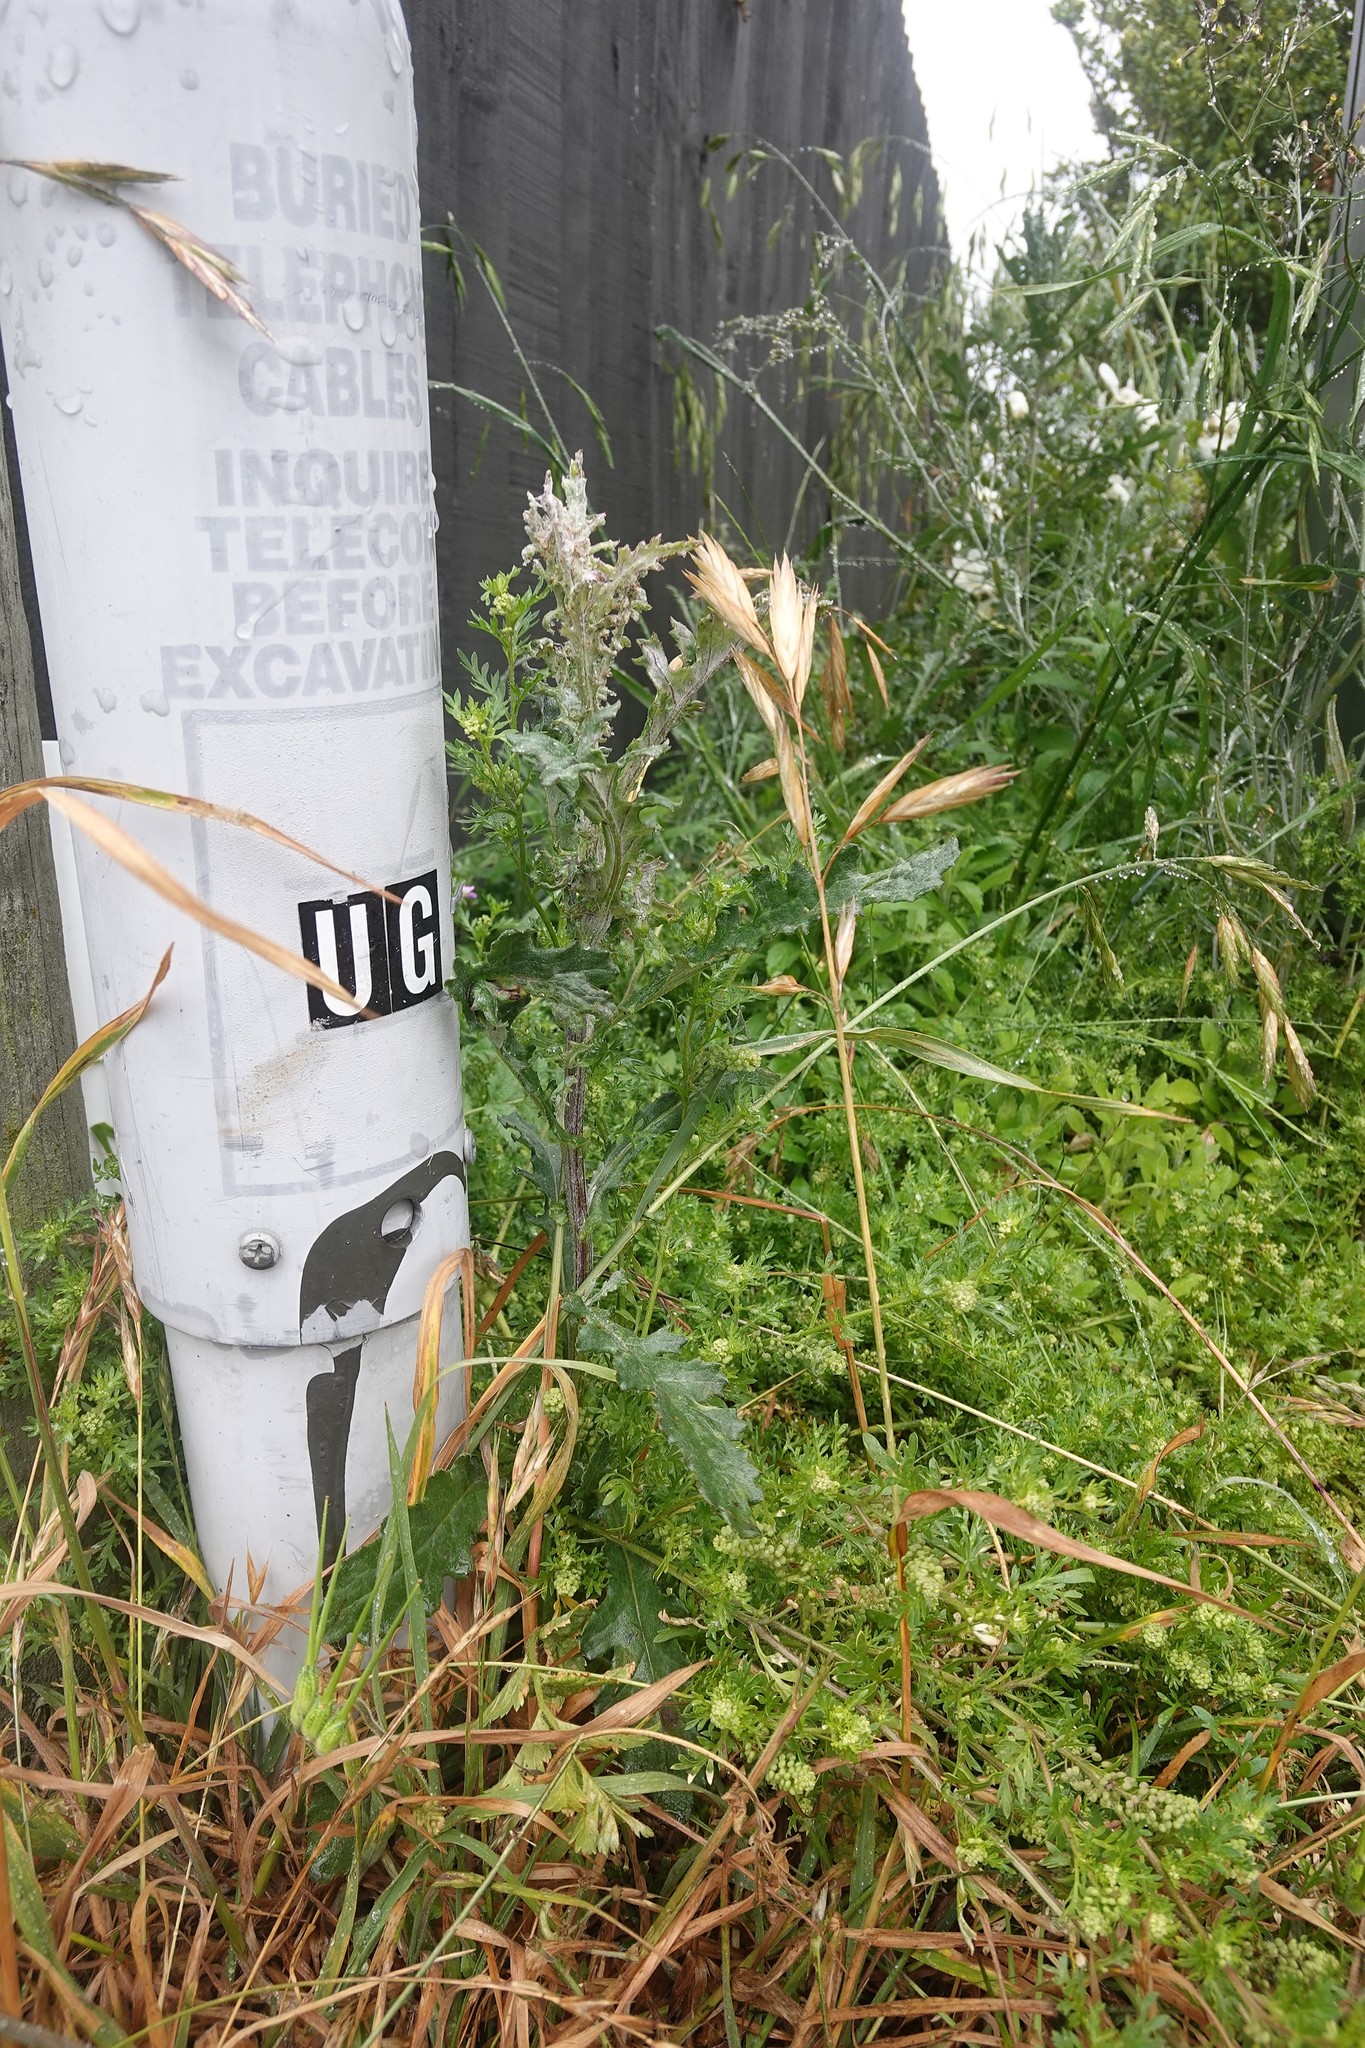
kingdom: Plantae
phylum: Tracheophyta
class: Magnoliopsida
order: Asterales
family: Asteraceae
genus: Senecio
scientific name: Senecio glomeratus
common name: Cutleaf burnweed
